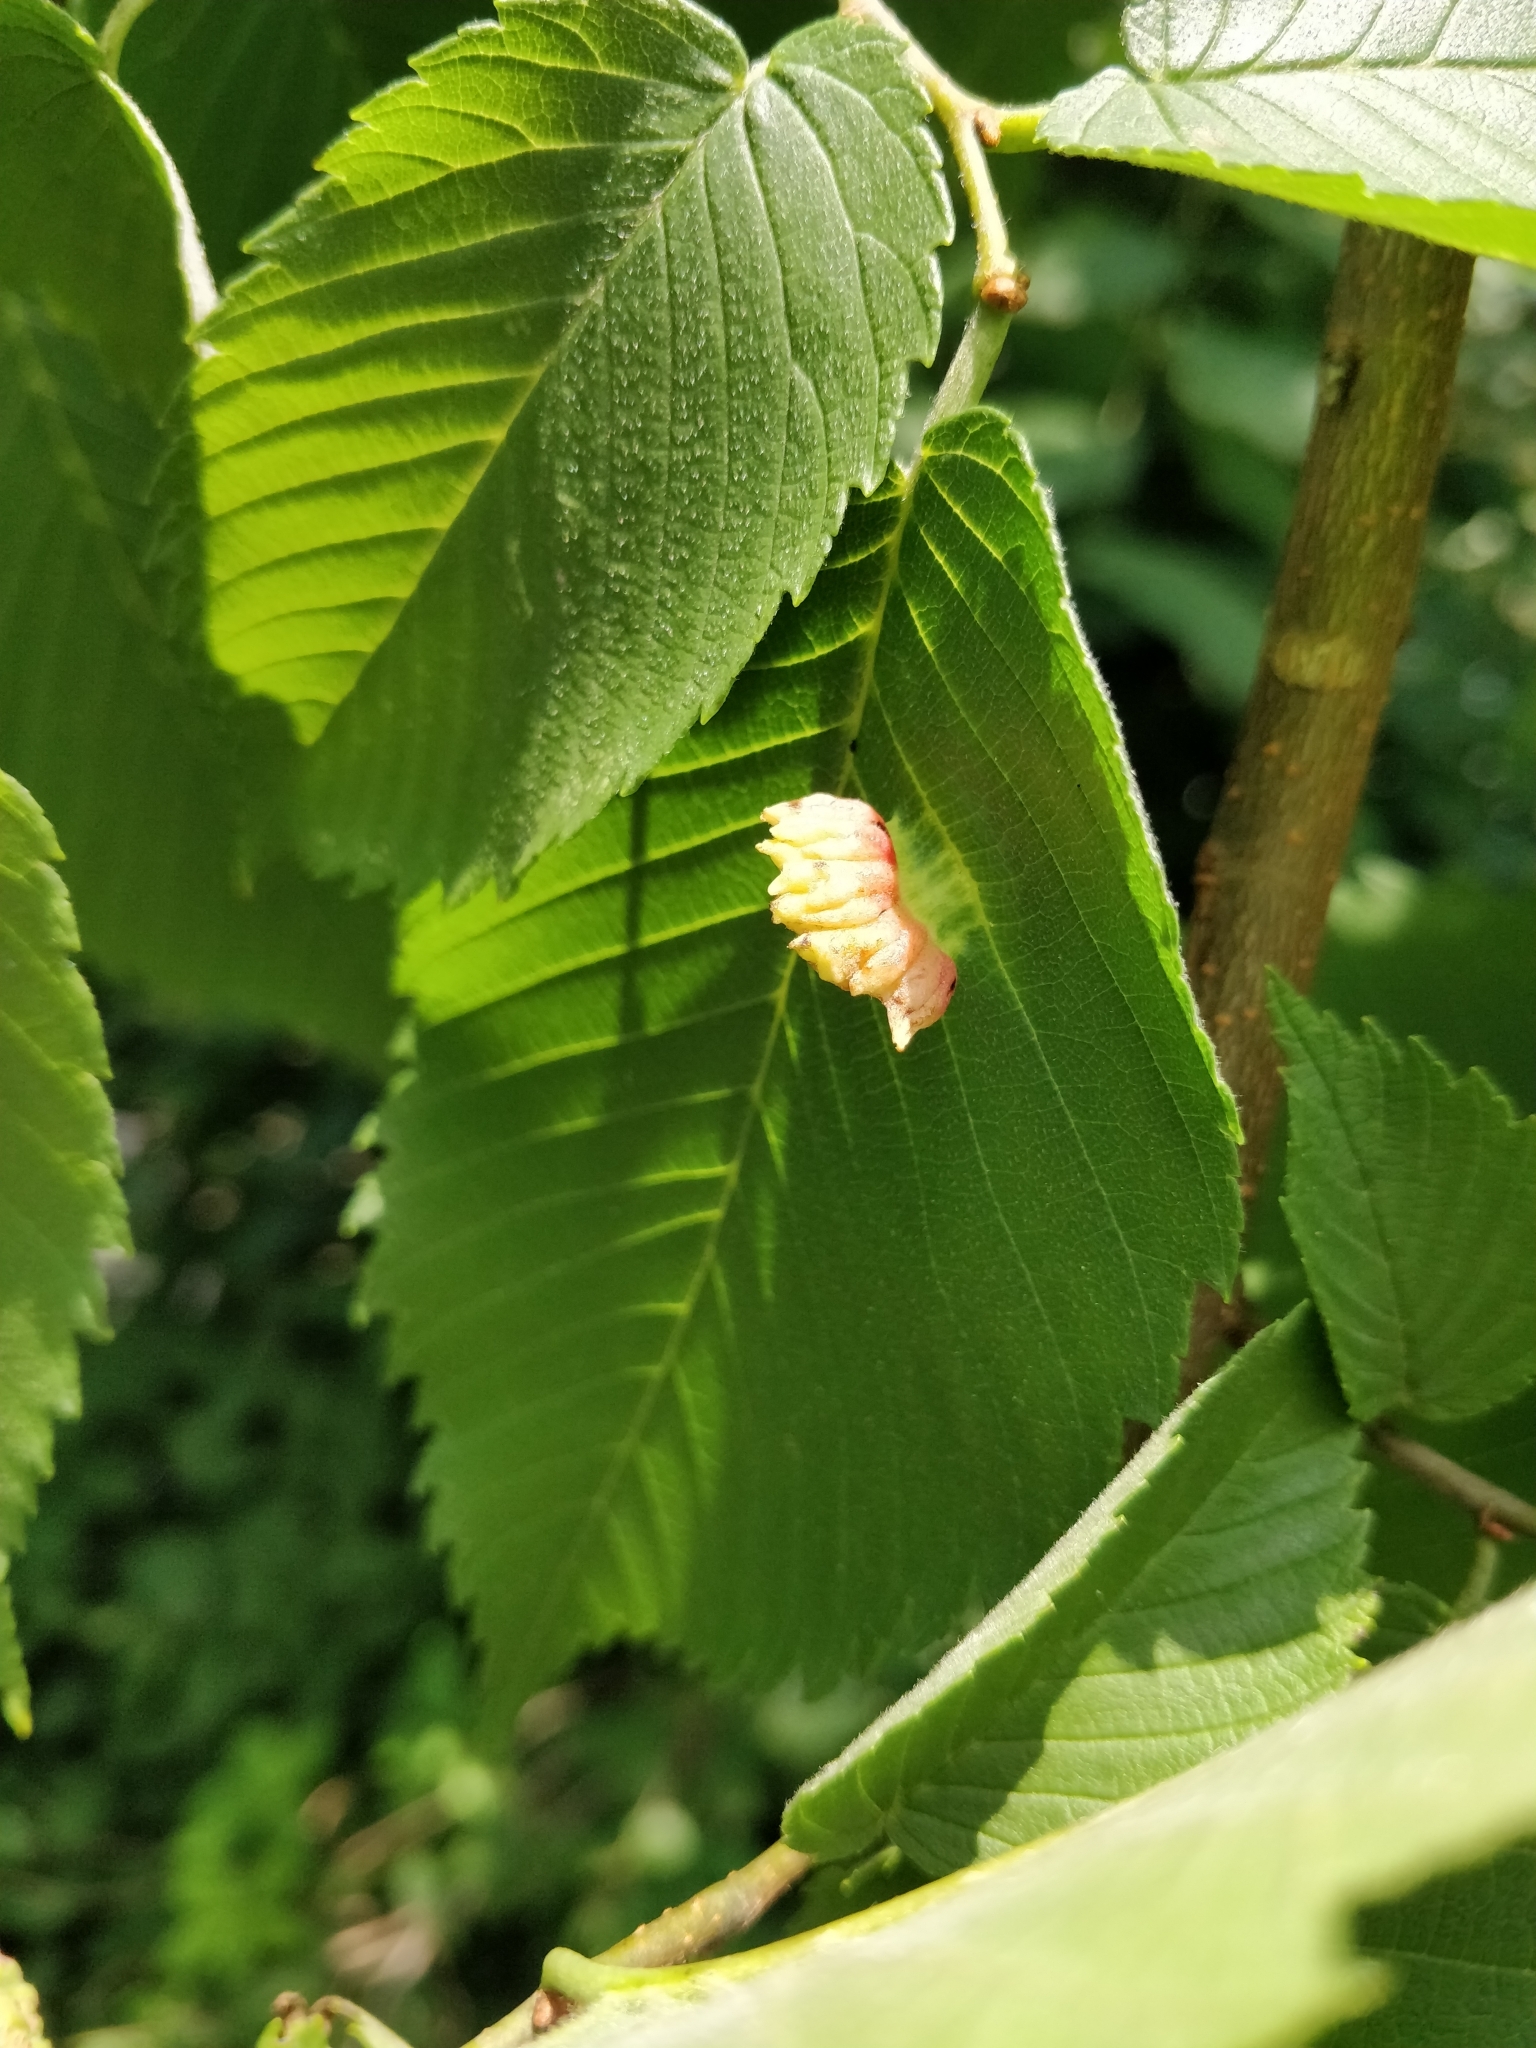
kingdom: Animalia
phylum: Arthropoda
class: Insecta
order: Hemiptera
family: Aphididae
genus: Colopha
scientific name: Colopha ulmicola
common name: Elm cockscombgall aphid
